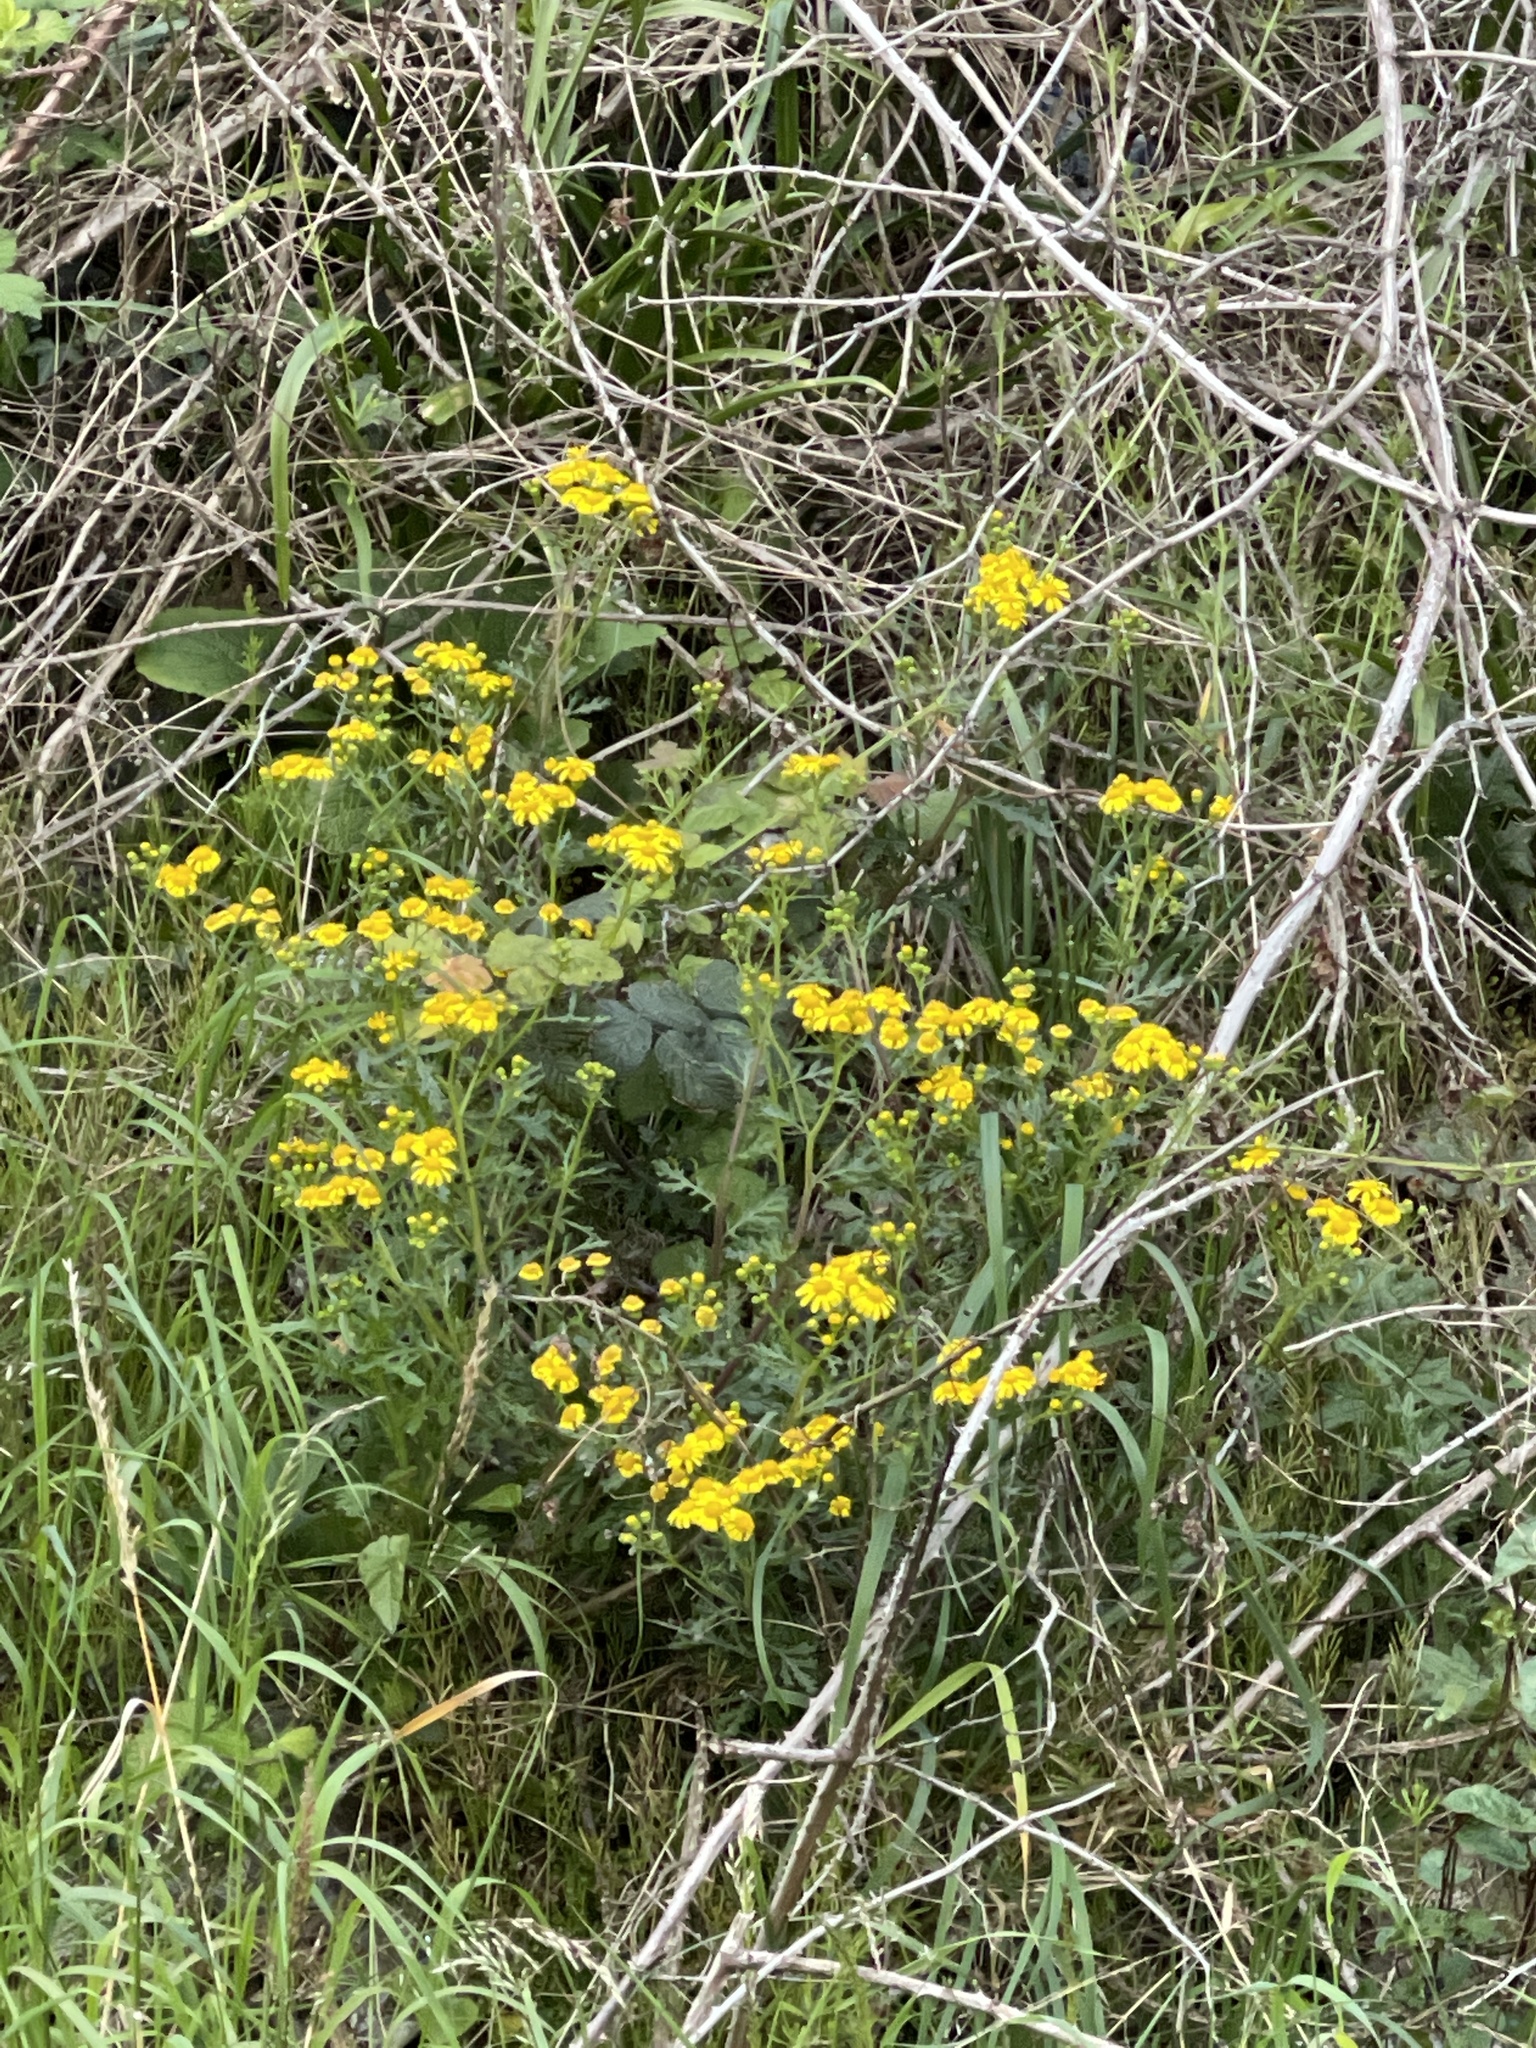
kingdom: Plantae
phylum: Tracheophyta
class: Magnoliopsida
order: Asterales
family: Asteraceae
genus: Senecio
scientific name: Senecio squalidus
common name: Oxford ragwort
